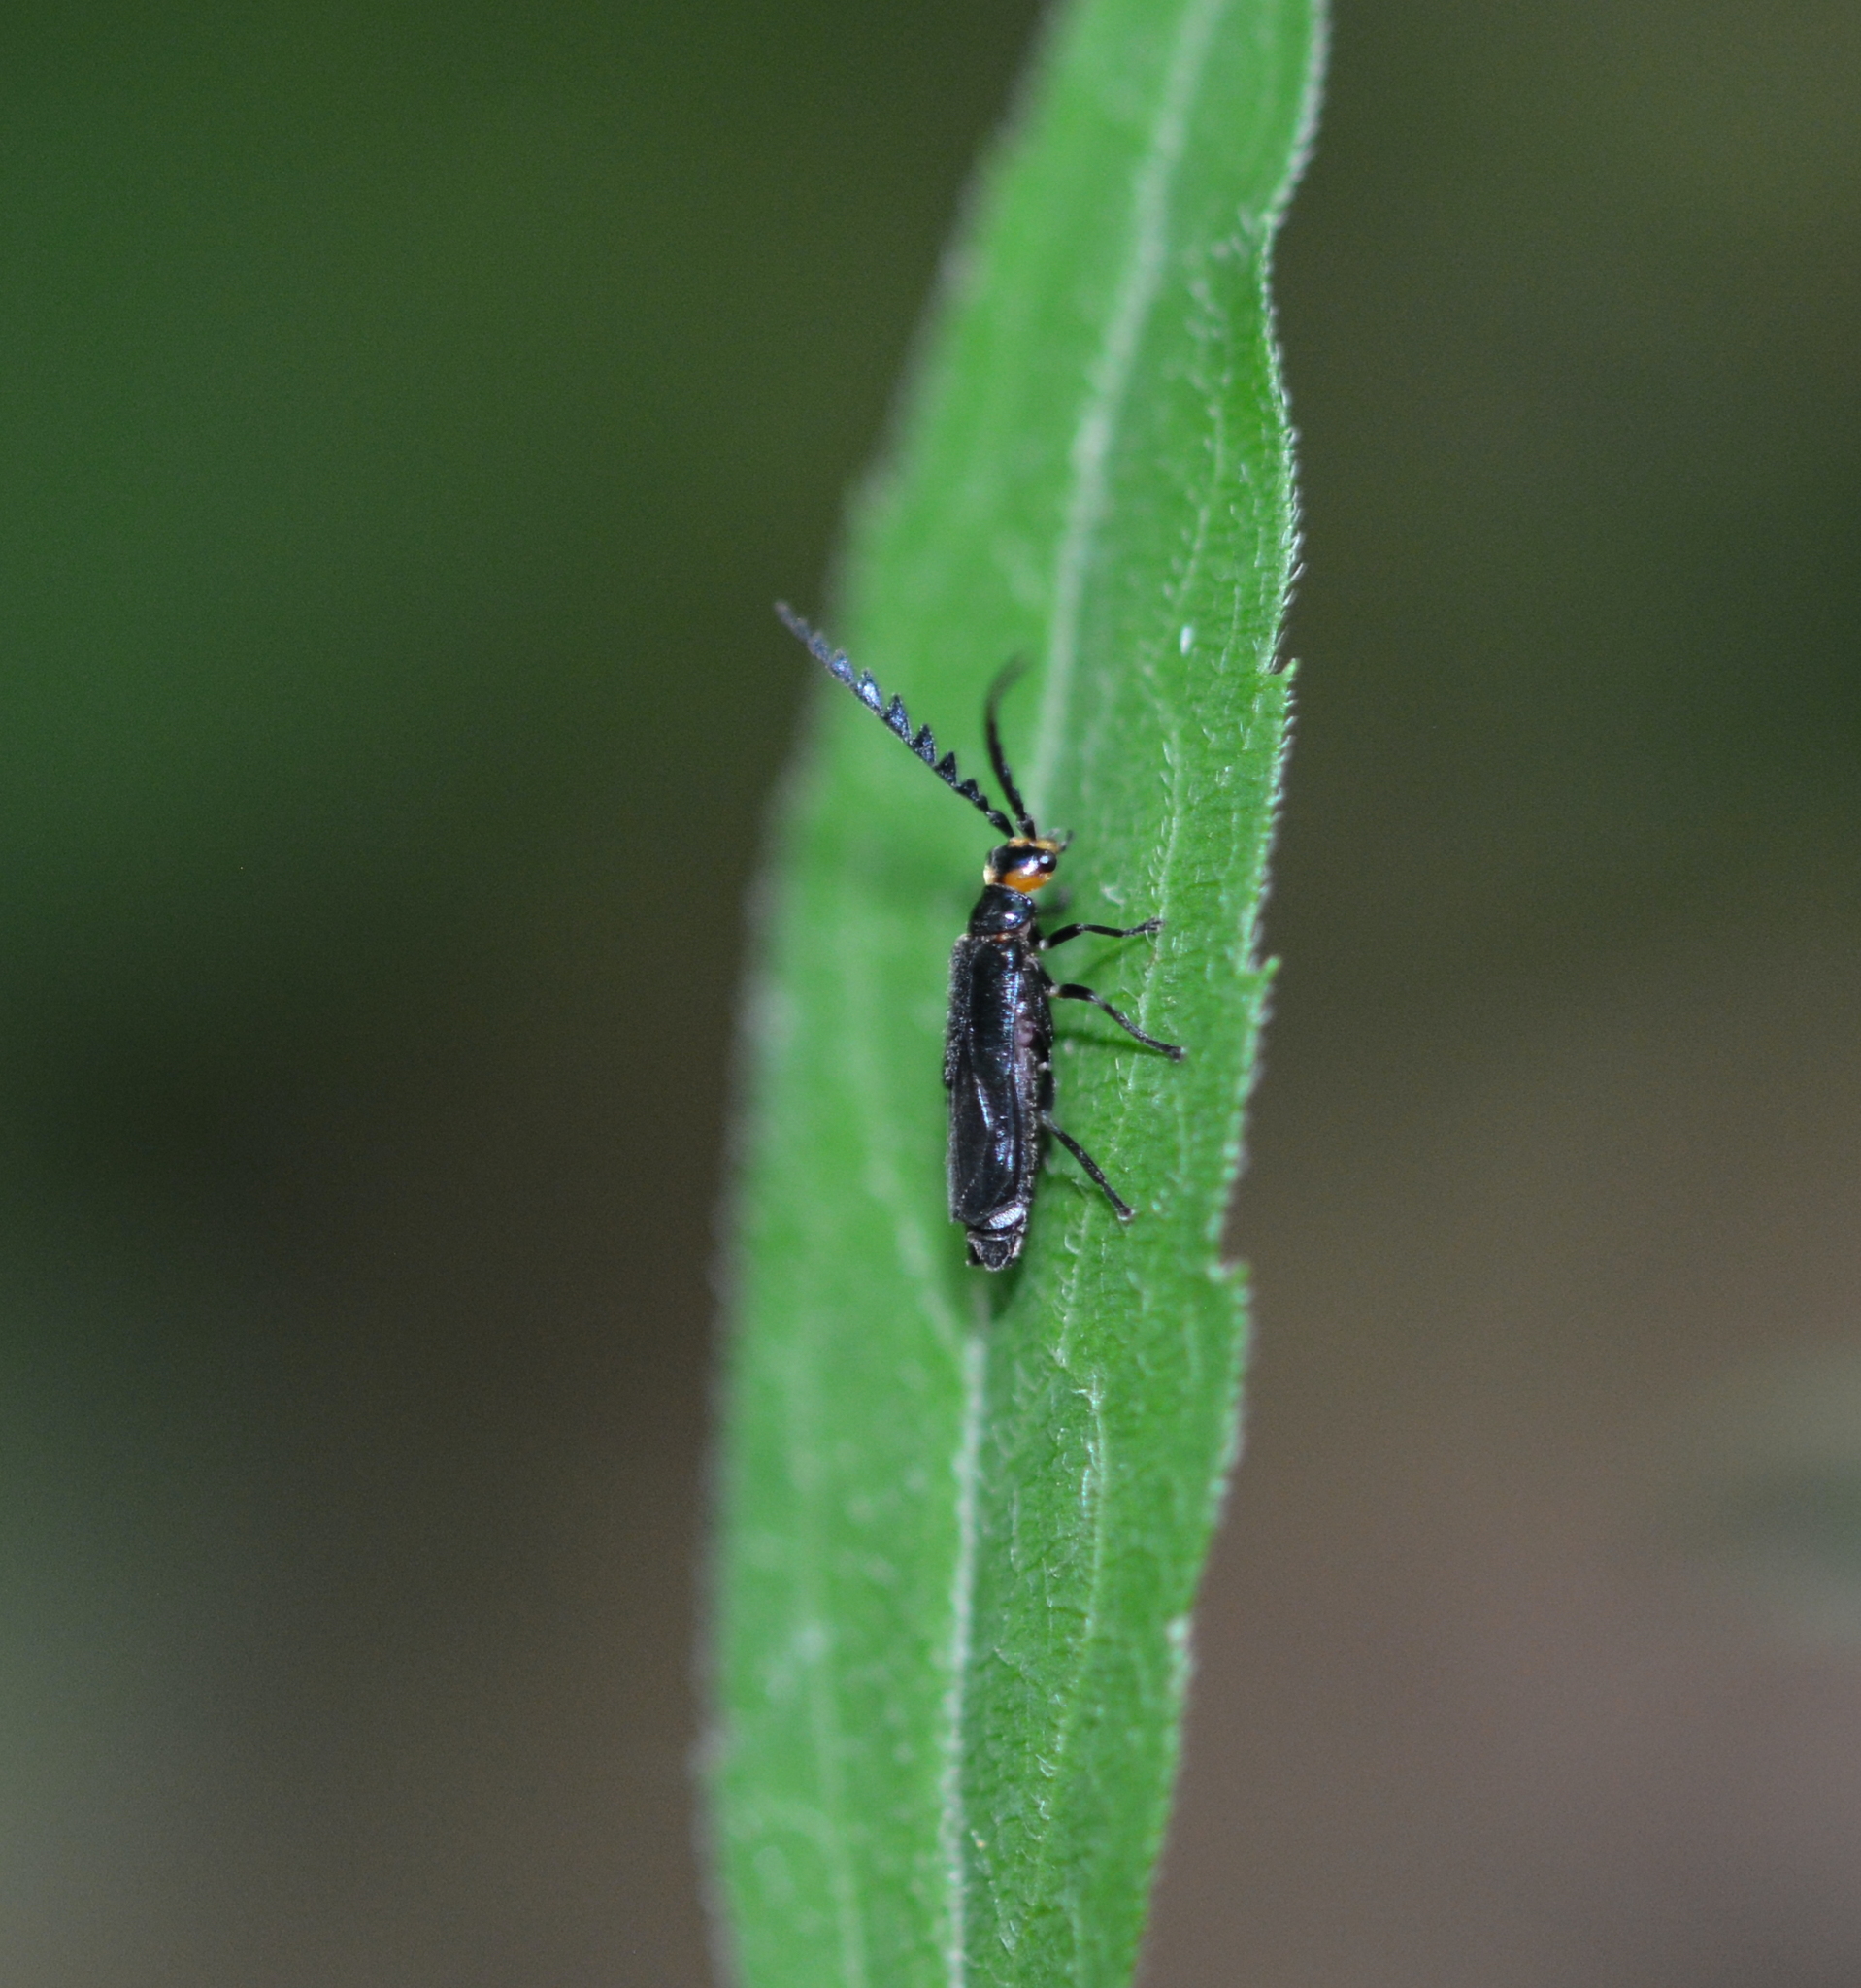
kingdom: Animalia
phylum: Arthropoda
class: Insecta
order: Coleoptera
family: Cantharidae
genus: Tytthonyx
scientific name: Tytthonyx erythrocephalus
